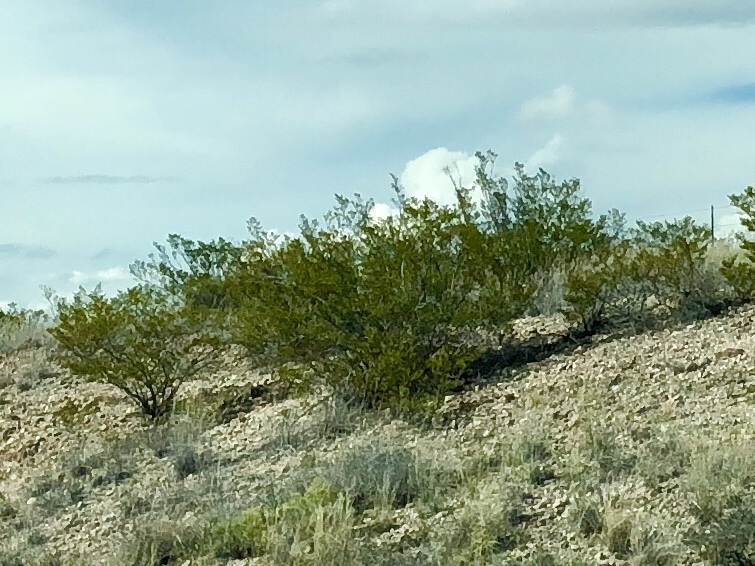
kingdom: Plantae
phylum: Tracheophyta
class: Magnoliopsida
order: Zygophyllales
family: Zygophyllaceae
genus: Larrea
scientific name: Larrea tridentata
